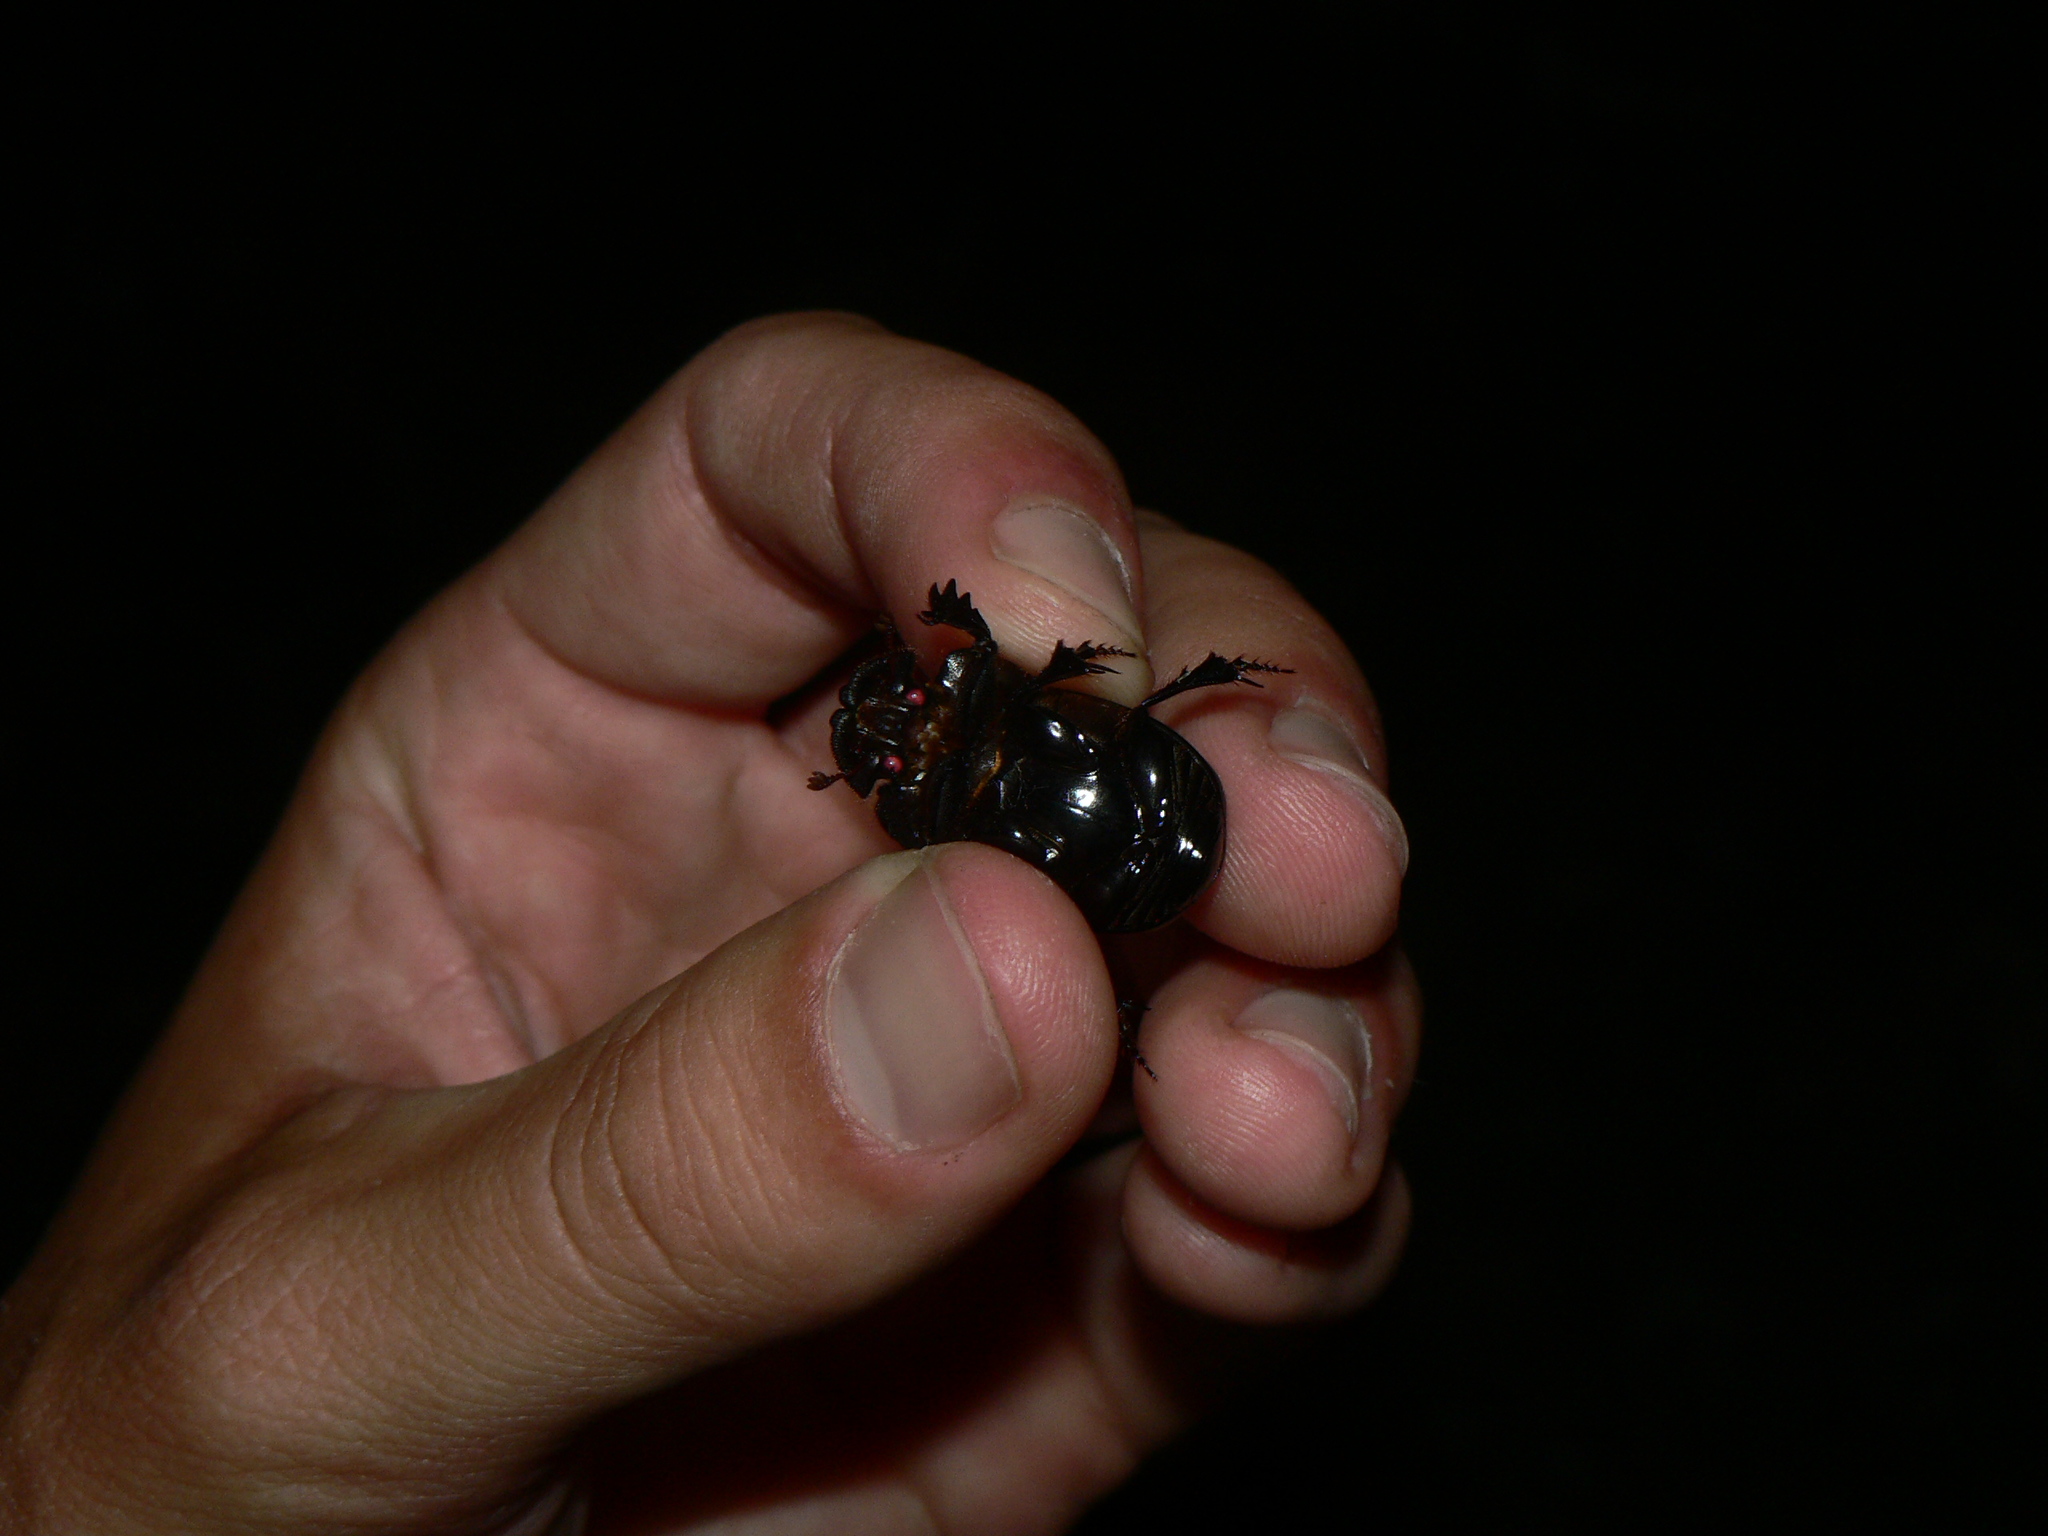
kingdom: Animalia
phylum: Arthropoda
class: Insecta
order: Coleoptera
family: Scarabaeidae
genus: Copris
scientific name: Copris lunaris
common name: Horned dung beetle
